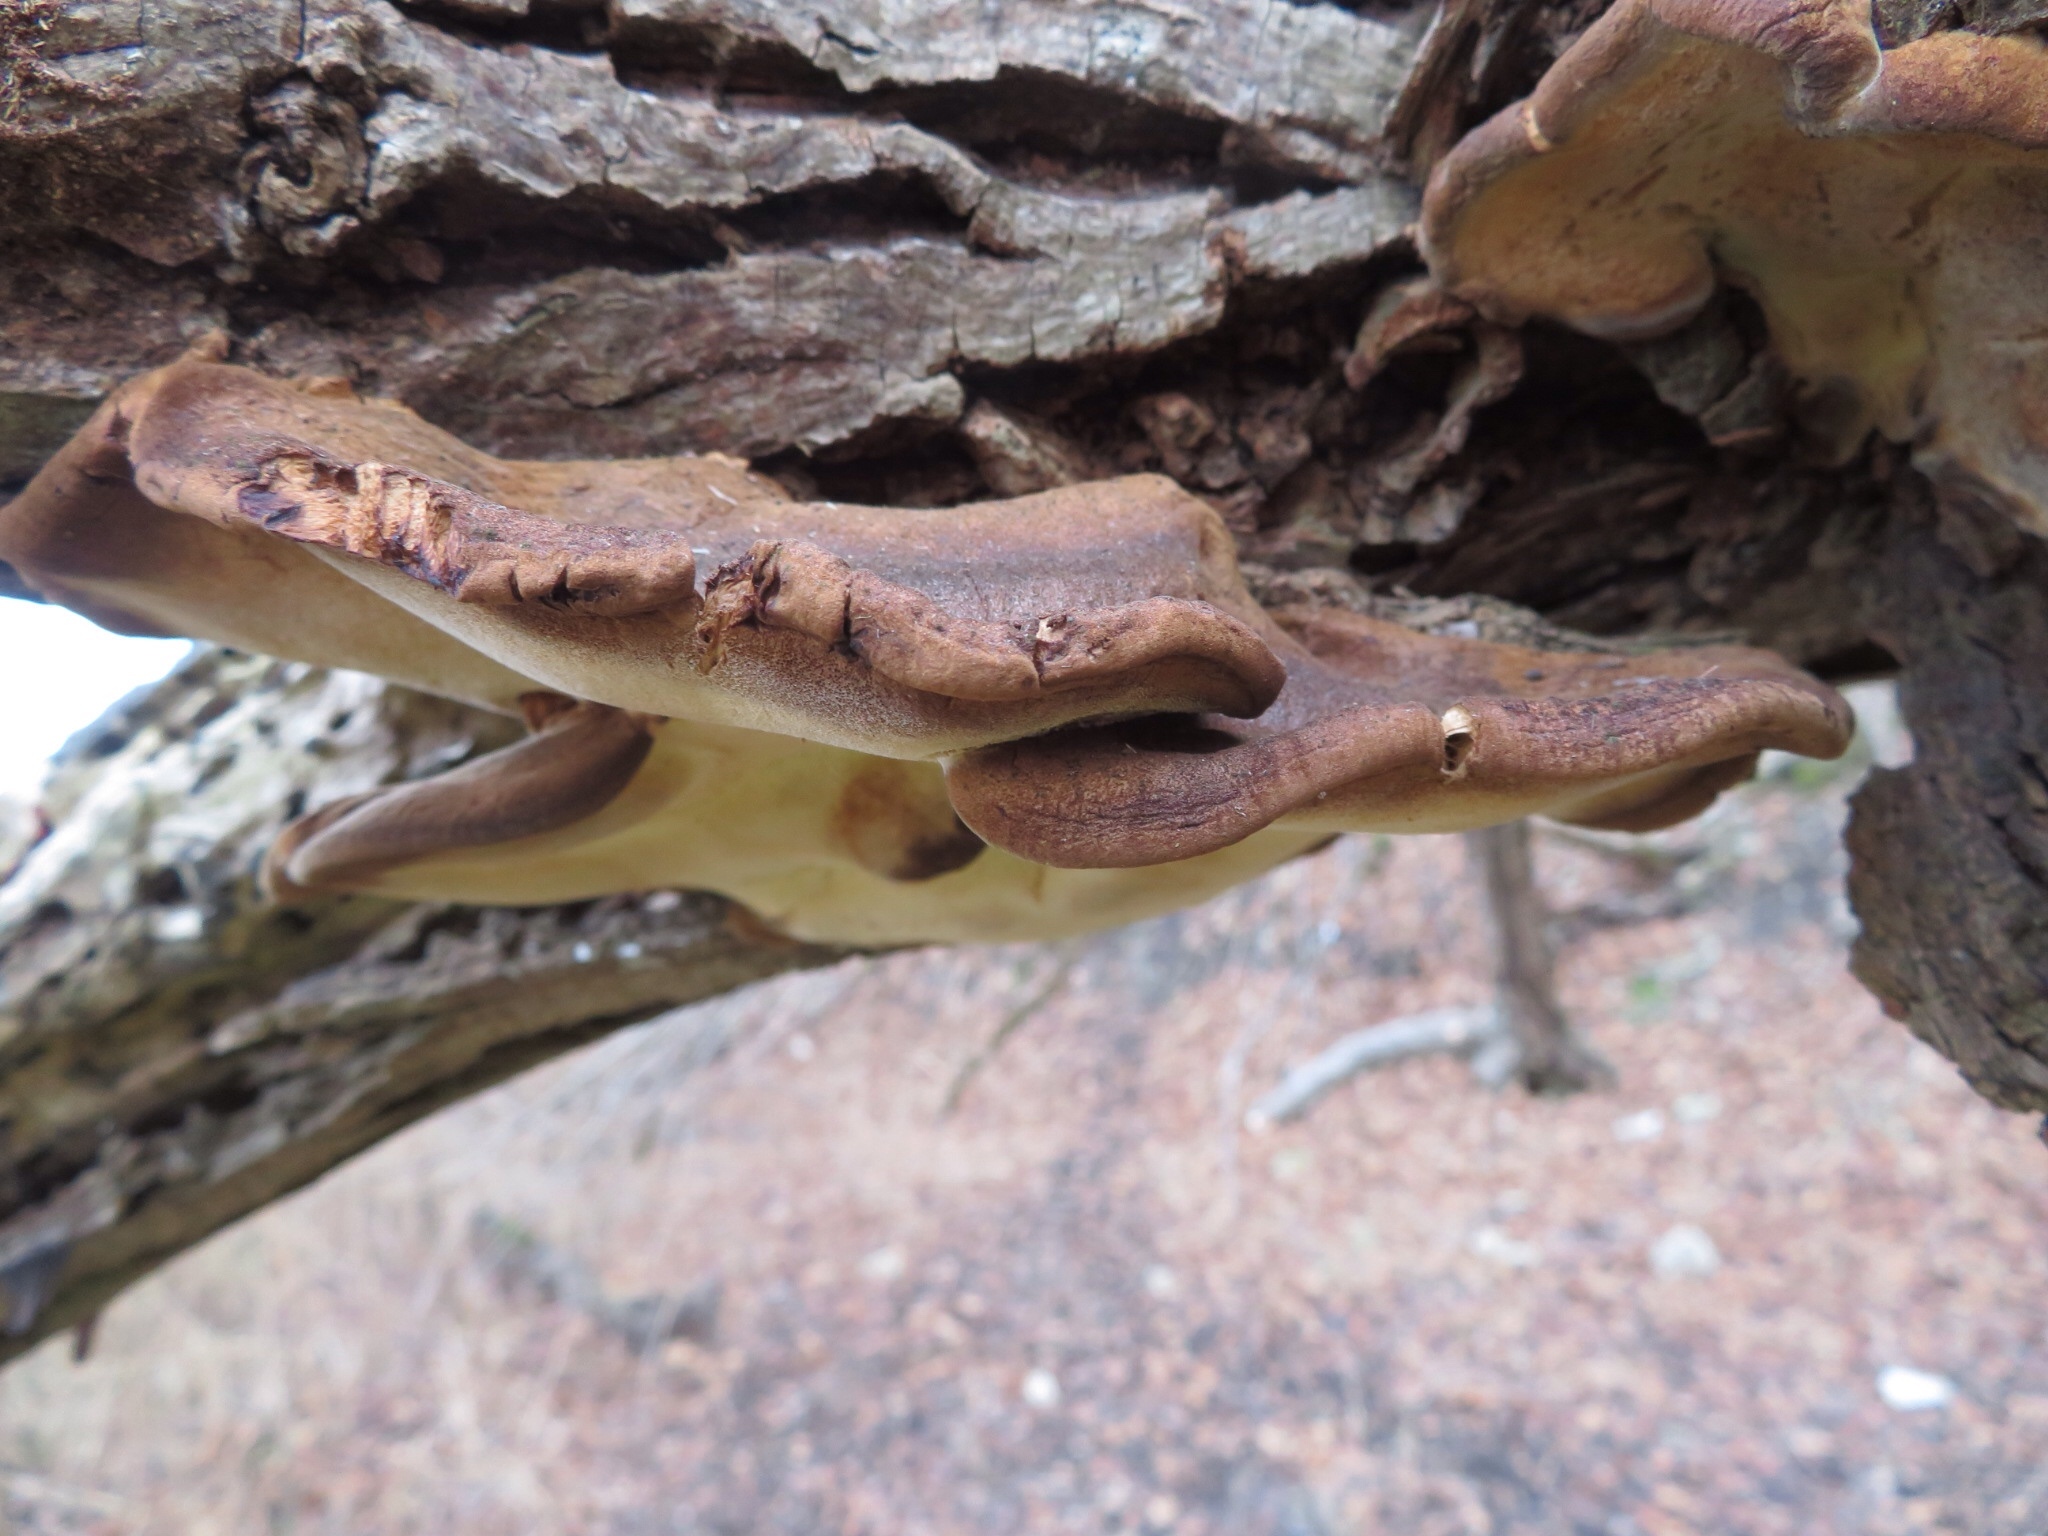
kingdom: Fungi
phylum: Basidiomycota
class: Agaricomycetes
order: Polyporales
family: Ischnodermataceae
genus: Ischnoderma
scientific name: Ischnoderma resinosum
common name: Resinous polypore
